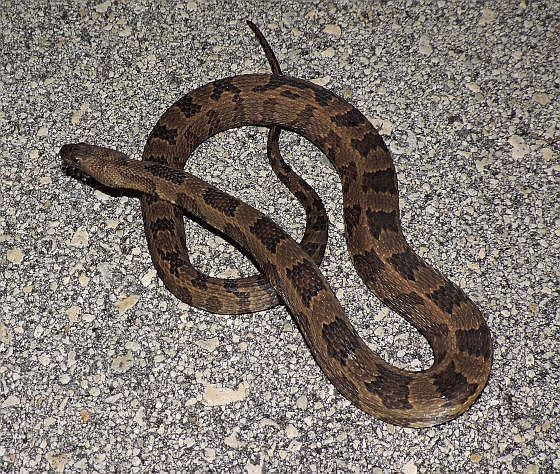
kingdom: Animalia
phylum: Chordata
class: Squamata
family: Colubridae
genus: Nerodia
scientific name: Nerodia taxispilota
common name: Brown water snake
